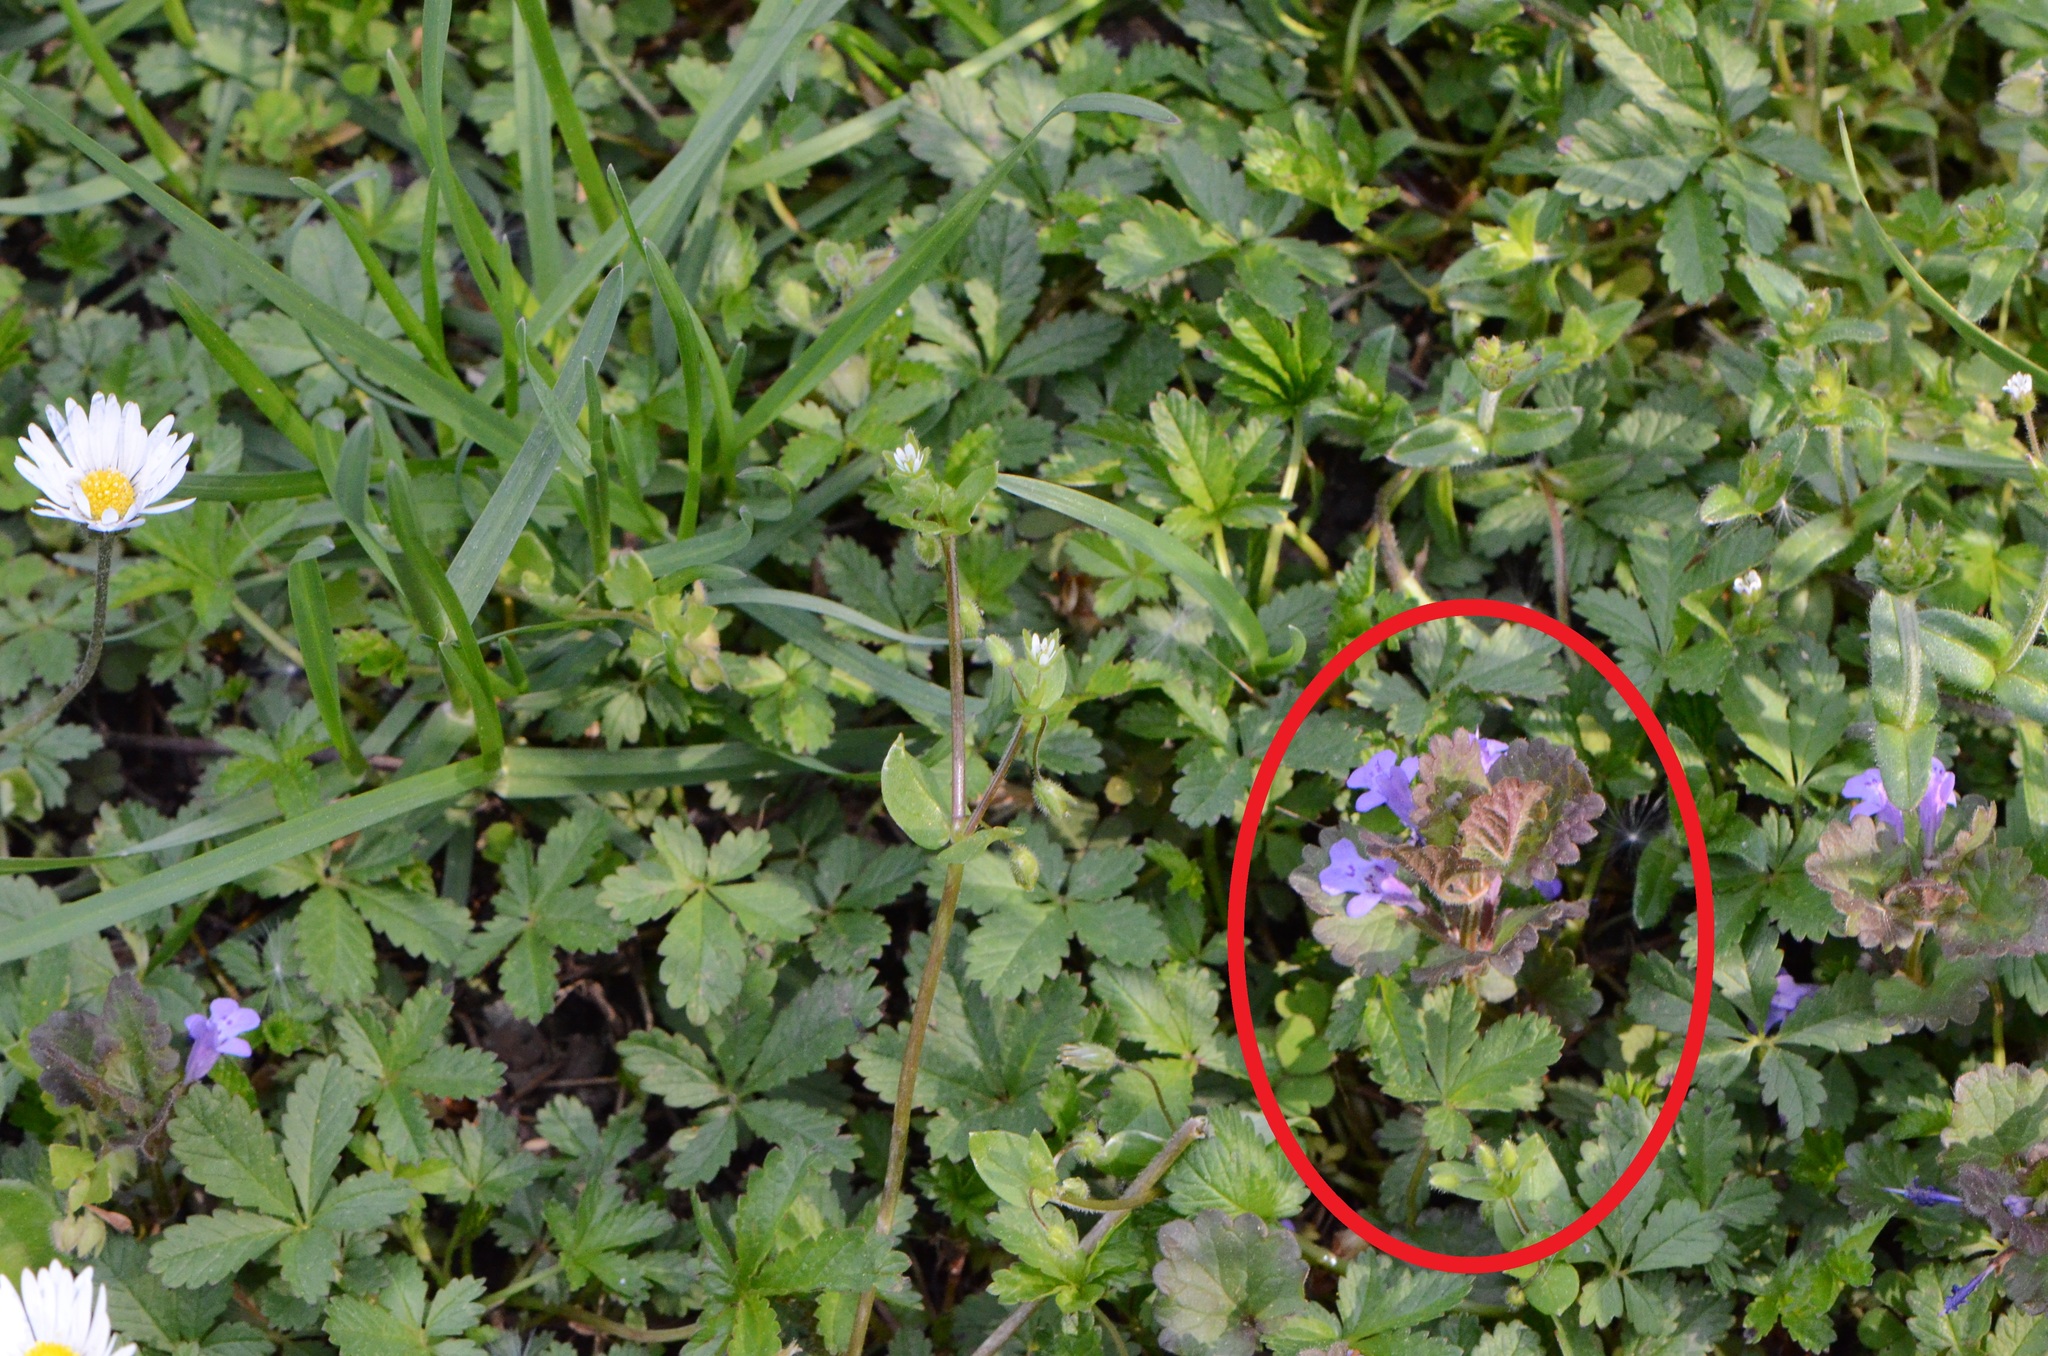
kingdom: Plantae
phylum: Tracheophyta
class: Magnoliopsida
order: Lamiales
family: Lamiaceae
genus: Glechoma
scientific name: Glechoma hederacea
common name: Ground ivy
